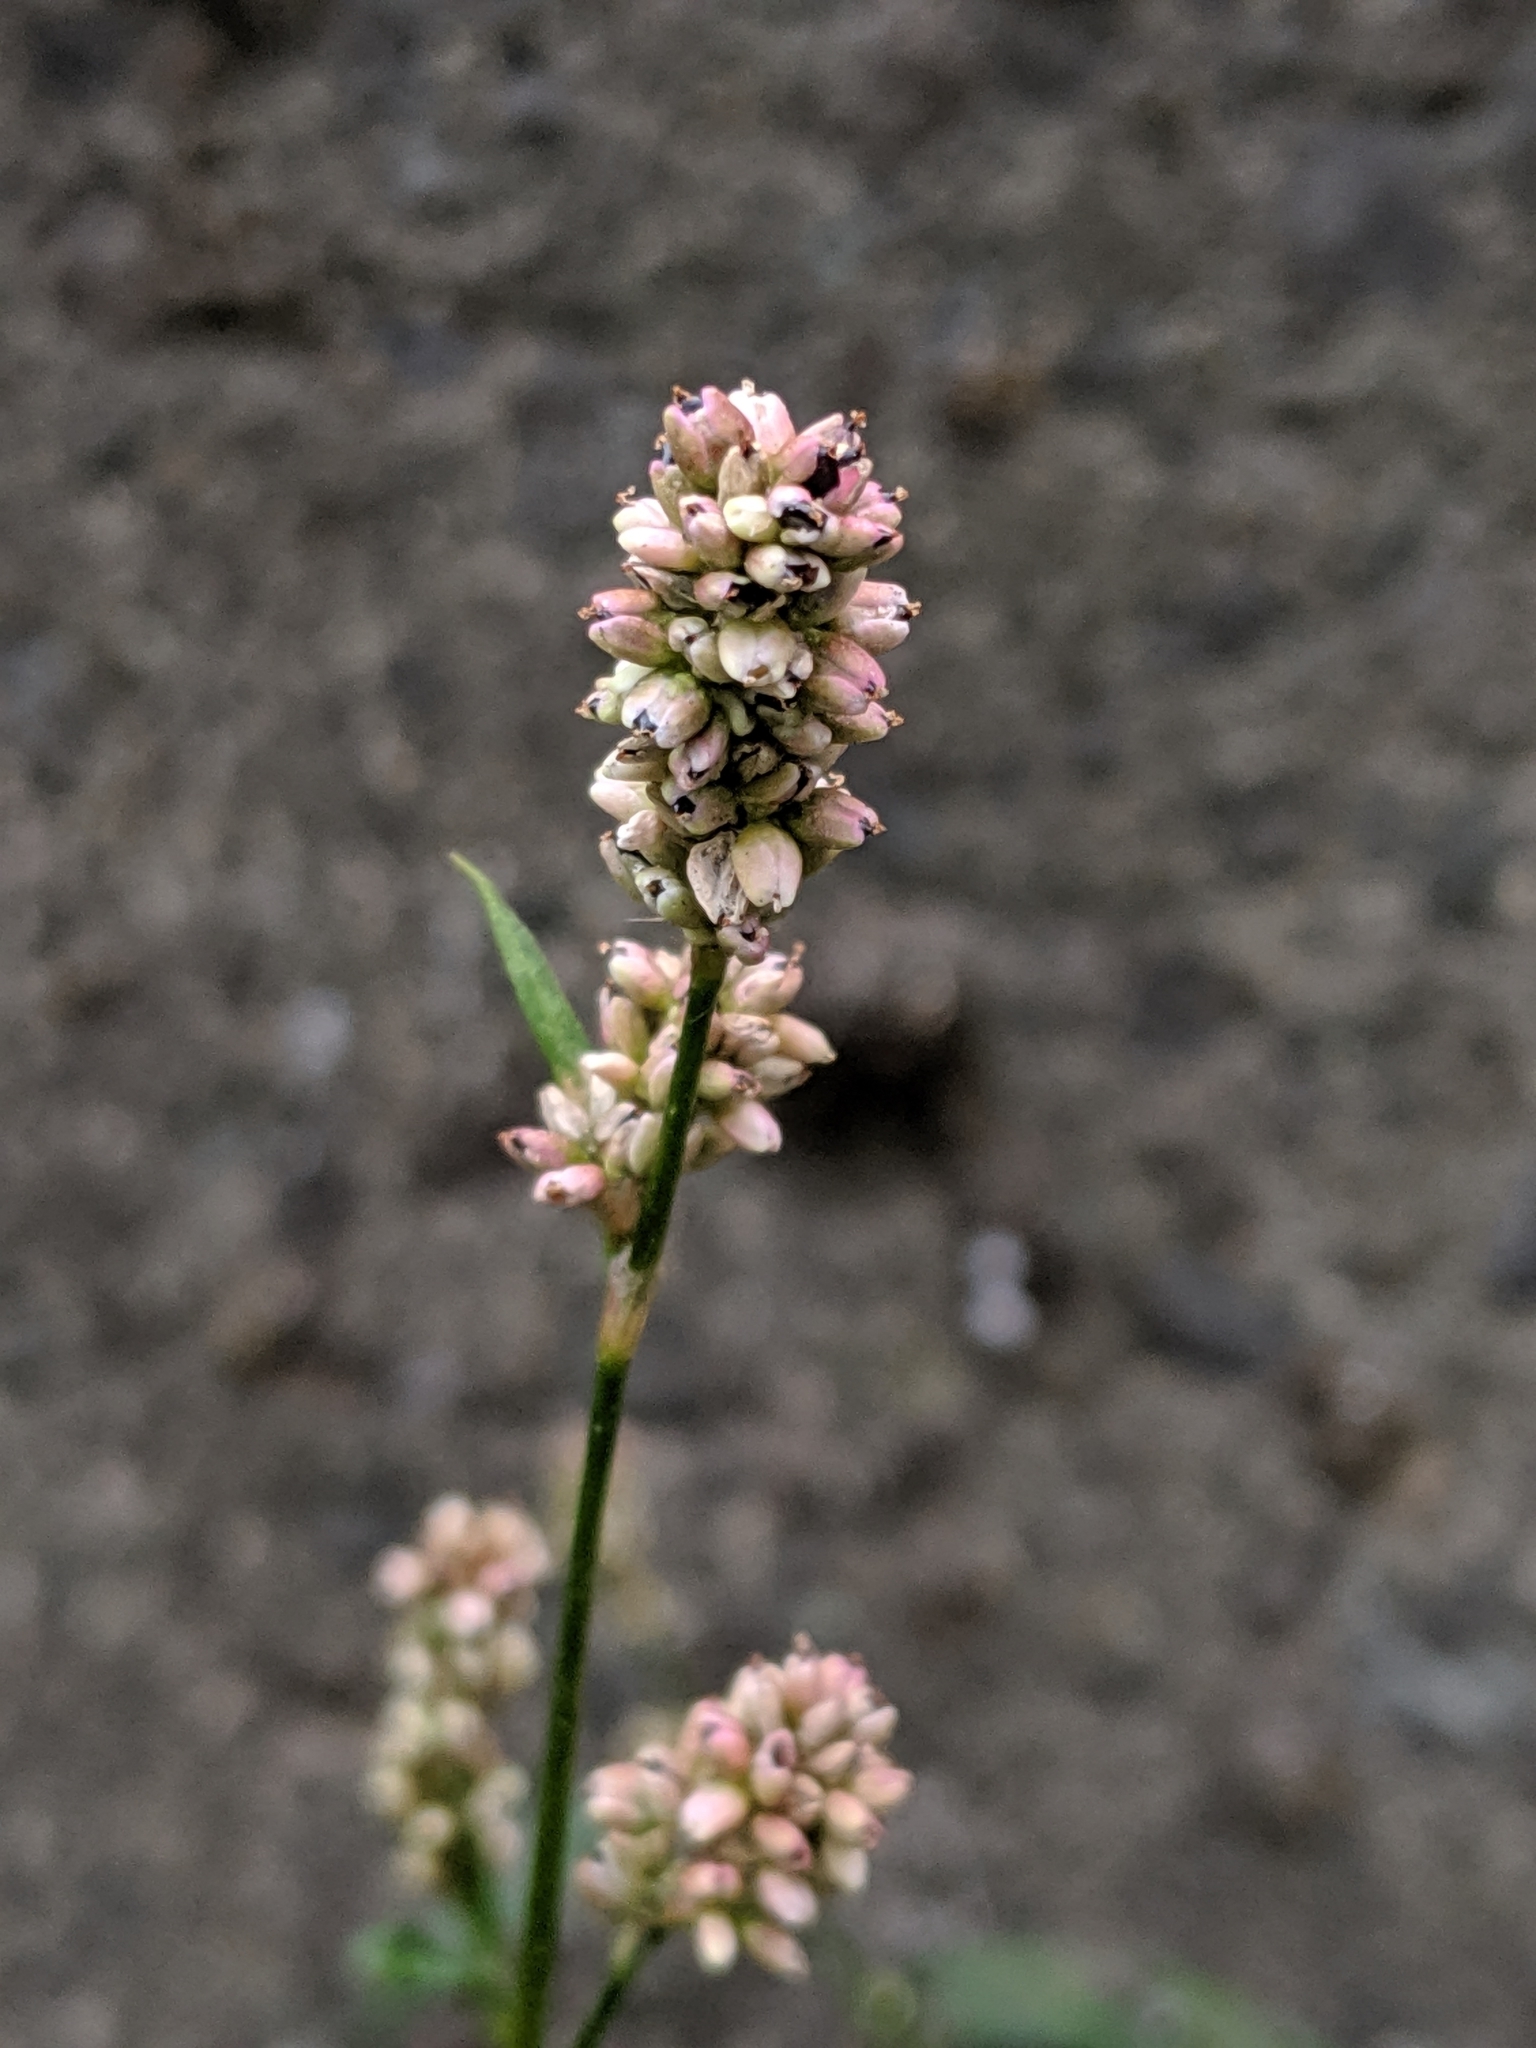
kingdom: Plantae
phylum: Tracheophyta
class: Magnoliopsida
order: Caryophyllales
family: Polygonaceae
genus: Persicaria
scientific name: Persicaria maculosa
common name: Redshank
